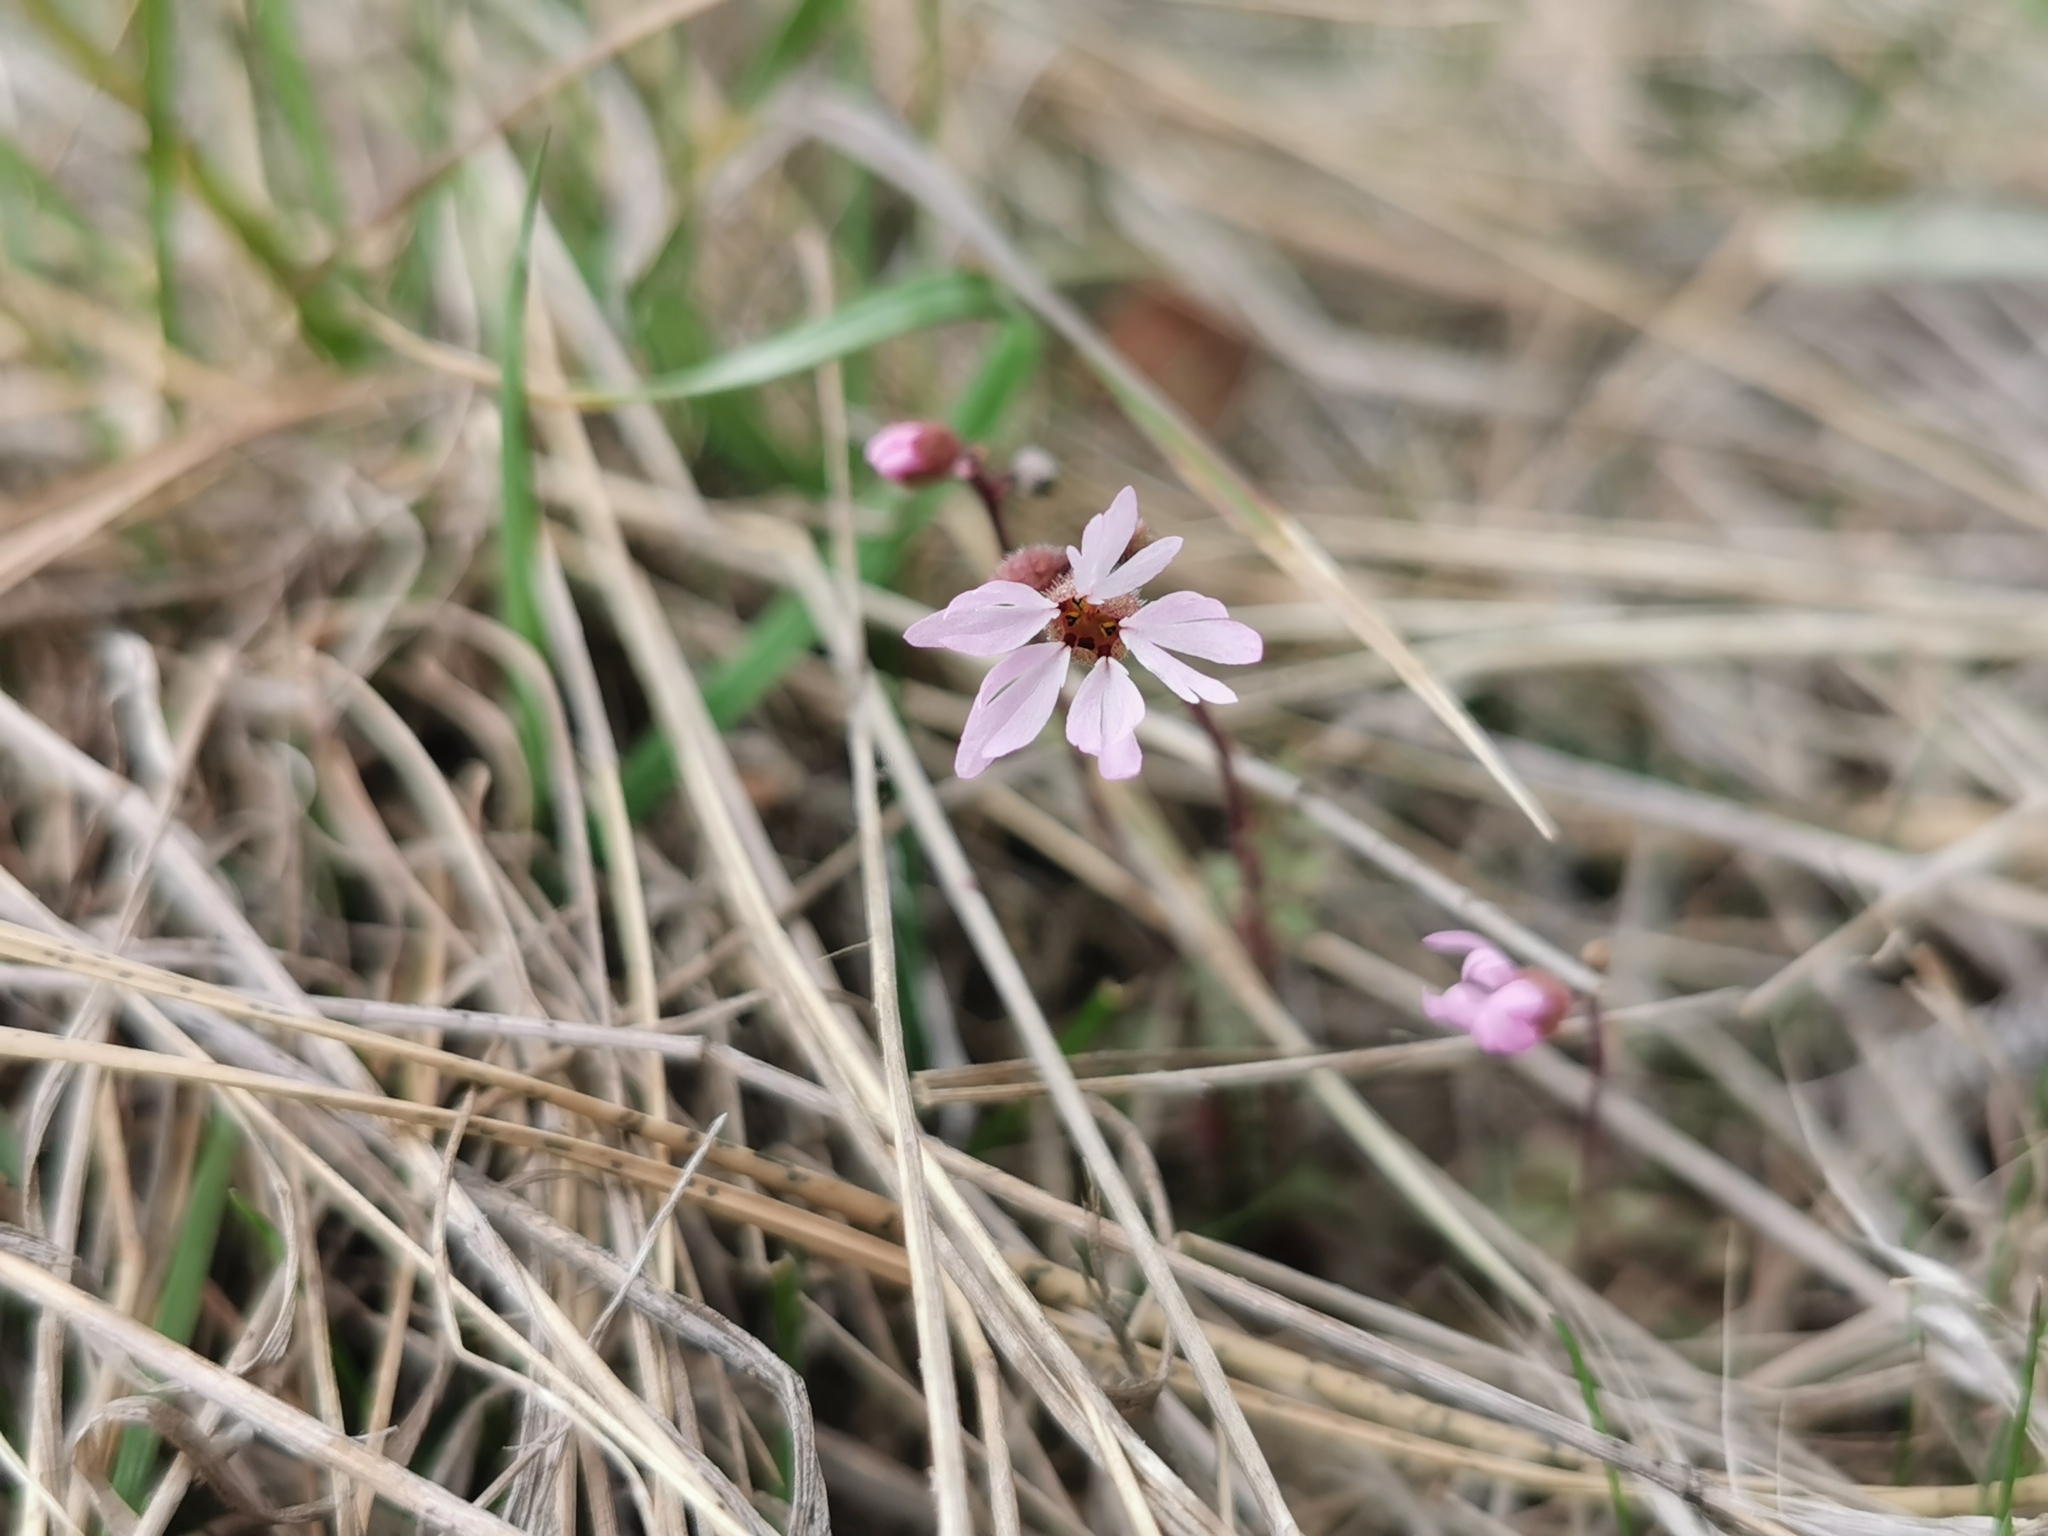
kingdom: Plantae
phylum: Tracheophyta
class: Magnoliopsida
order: Saxifragales
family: Saxifragaceae
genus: Lithophragma
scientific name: Lithophragma glabrum
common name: Bulbous prairie-star
